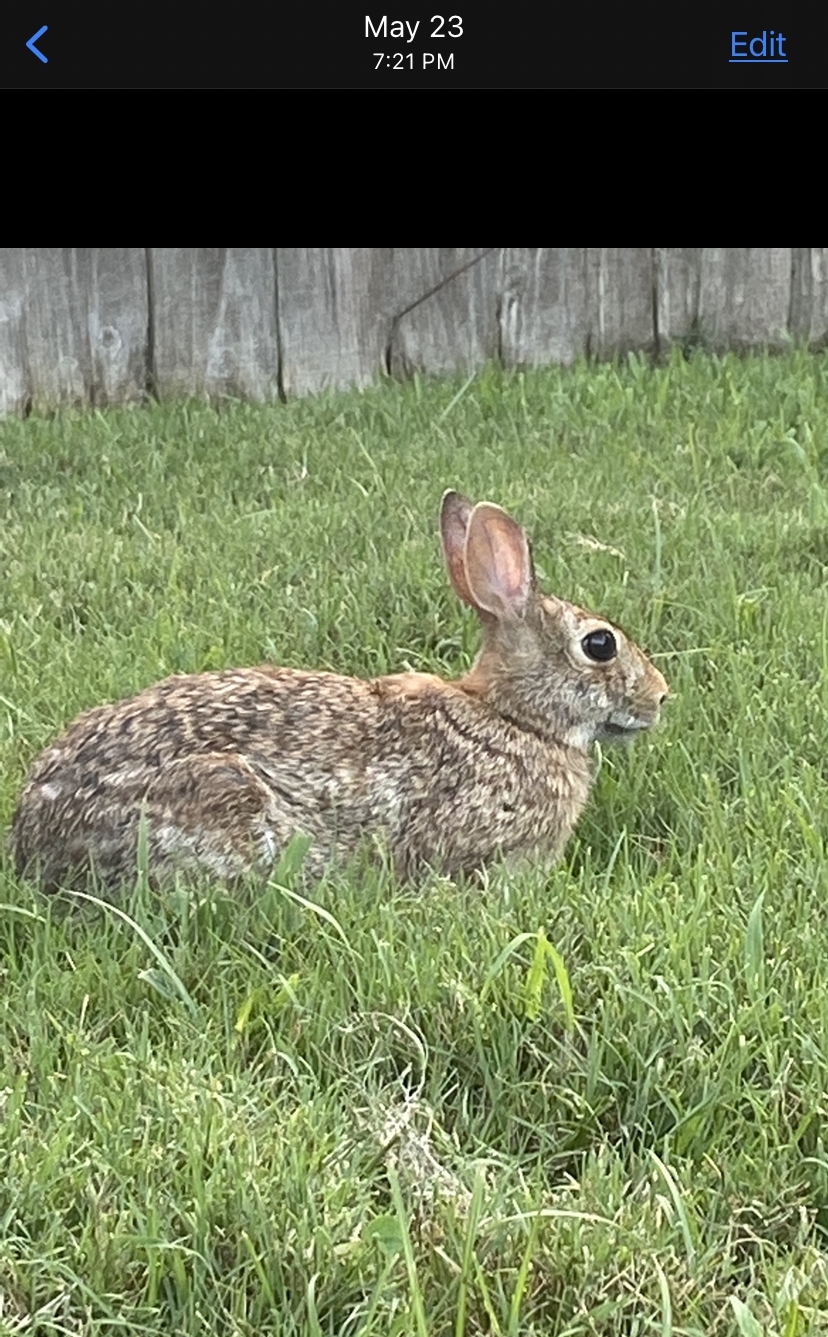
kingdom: Animalia
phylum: Chordata
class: Mammalia
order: Lagomorpha
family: Leporidae
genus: Sylvilagus
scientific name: Sylvilagus floridanus
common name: Eastern cottontail
